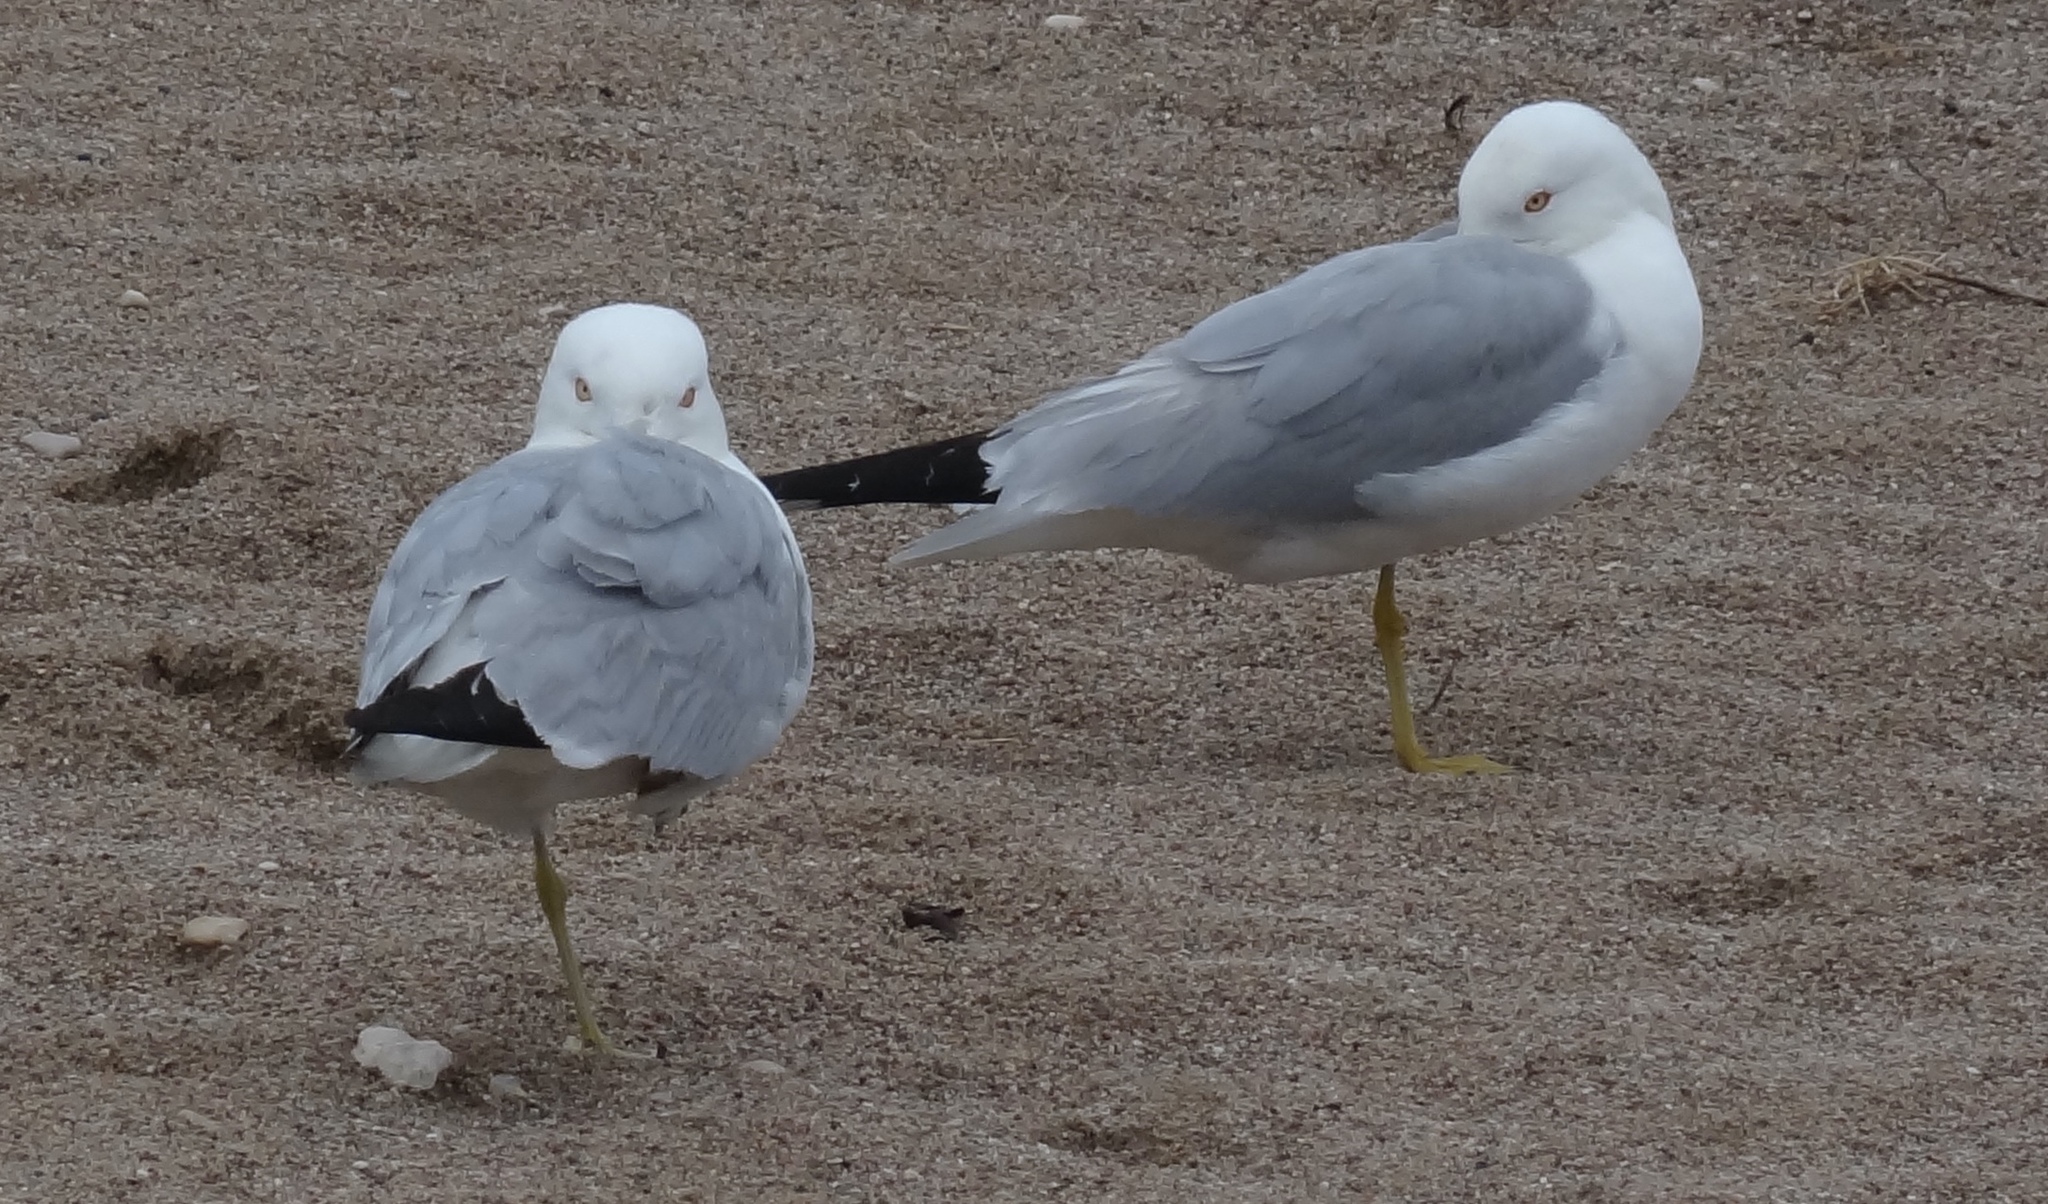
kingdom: Animalia
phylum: Chordata
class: Aves
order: Charadriiformes
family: Laridae
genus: Larus
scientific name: Larus delawarensis
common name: Ring-billed gull
